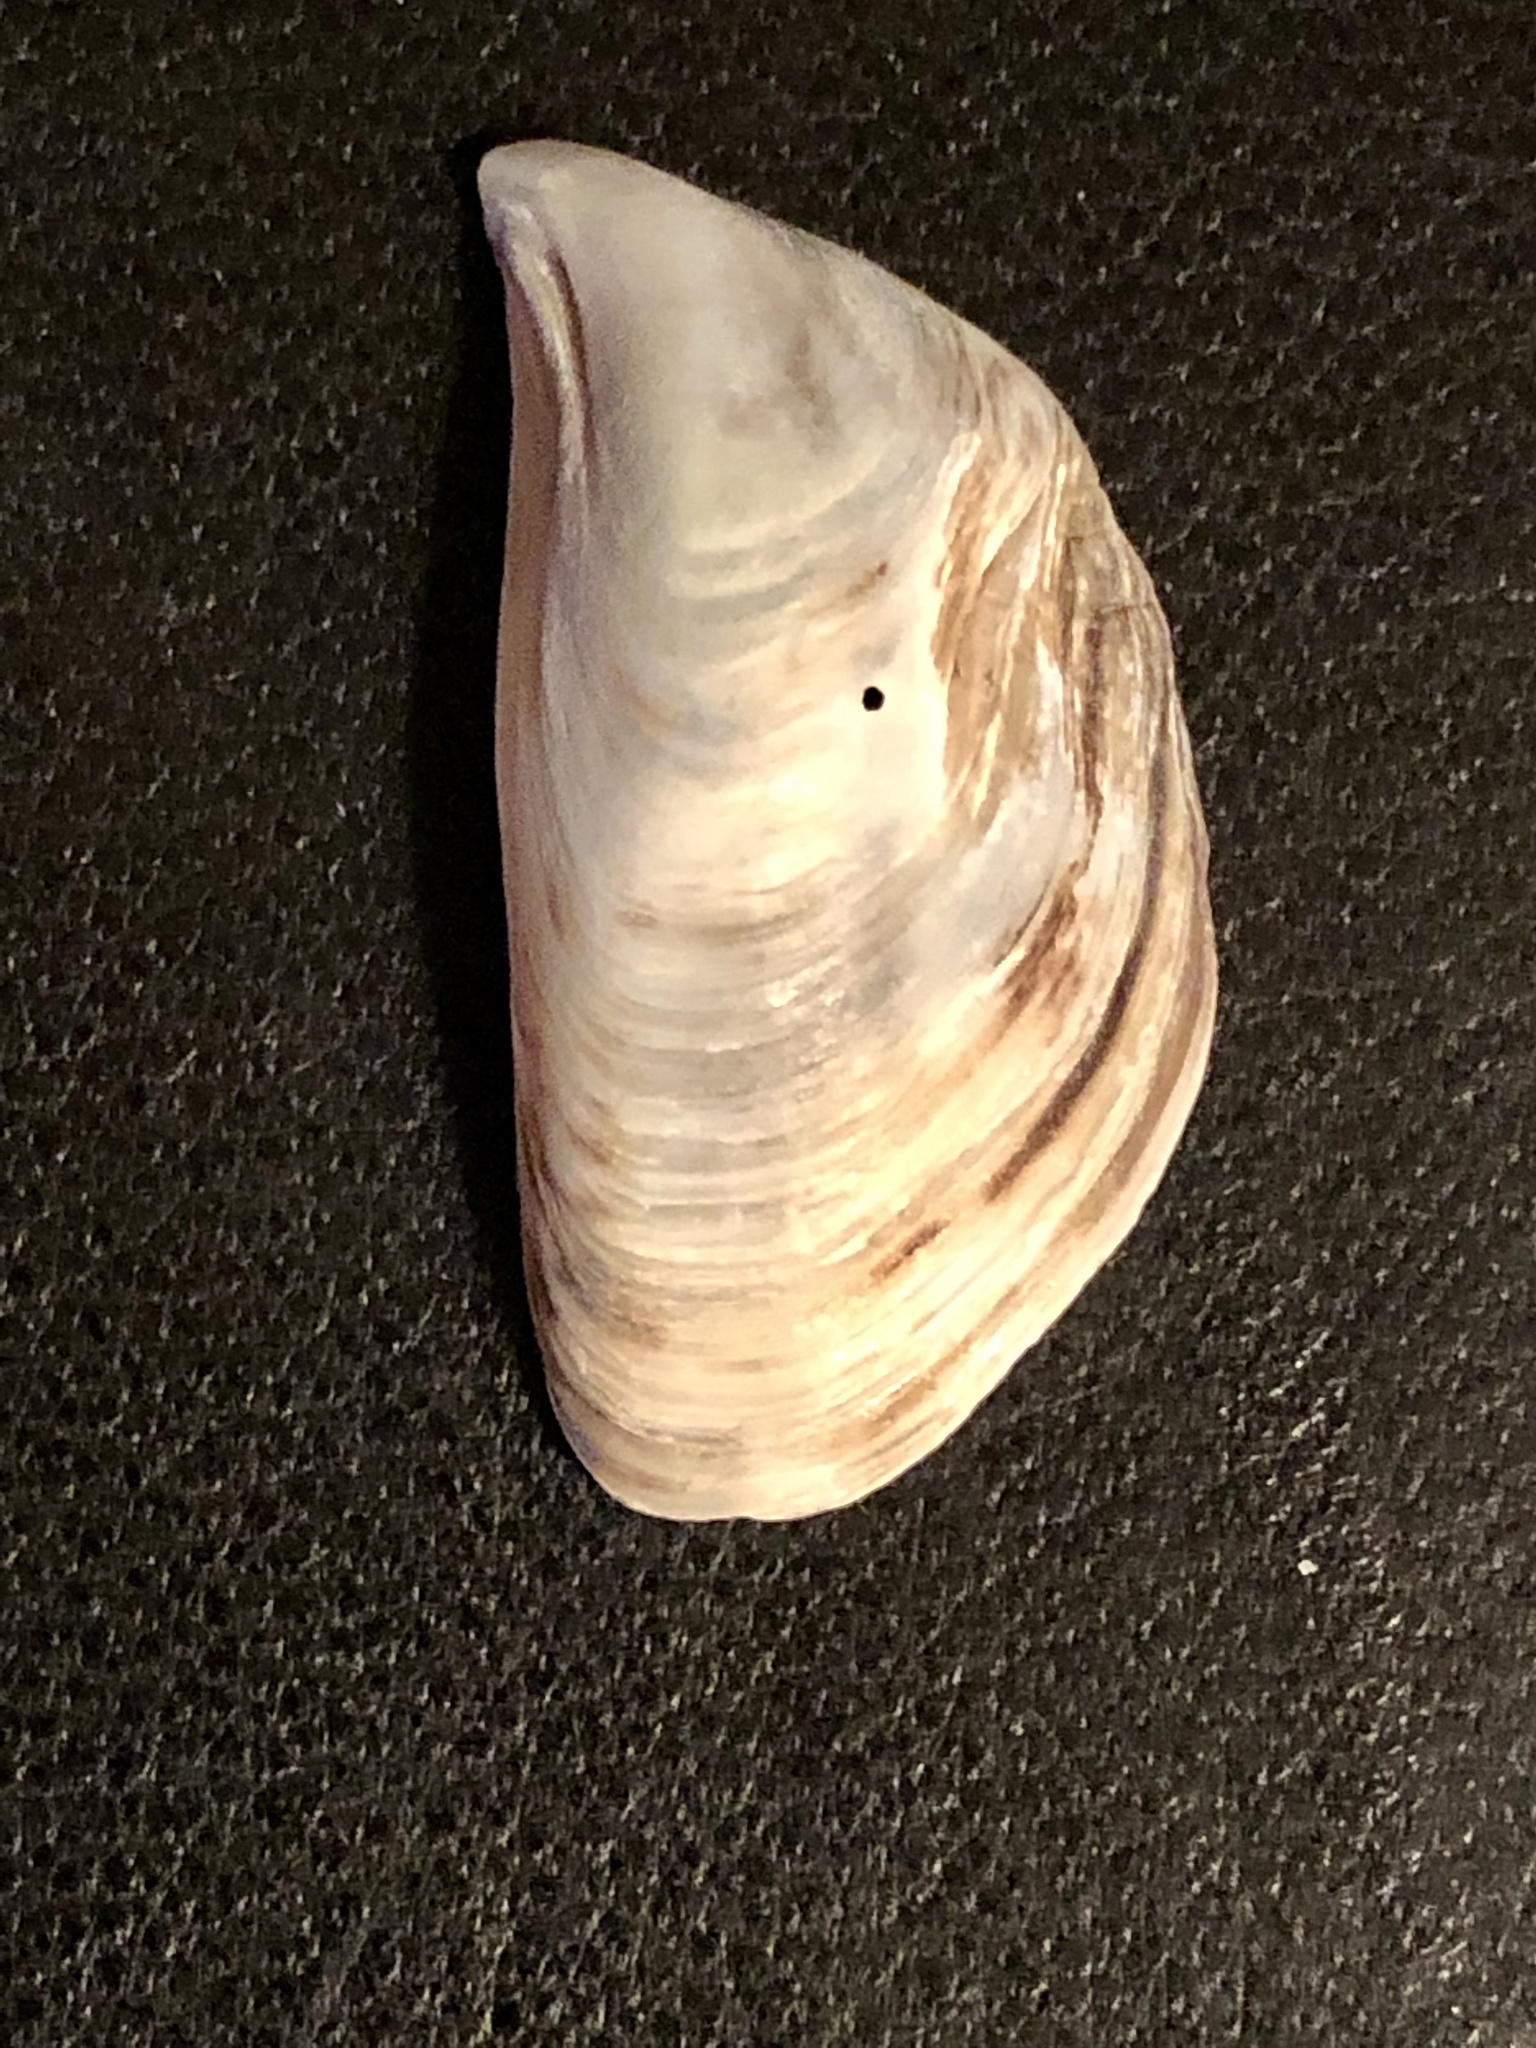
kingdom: Animalia
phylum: Mollusca
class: Bivalvia
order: Myida
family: Dreissenidae
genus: Dreissena
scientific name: Dreissena bugensis
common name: Quagga mussel
